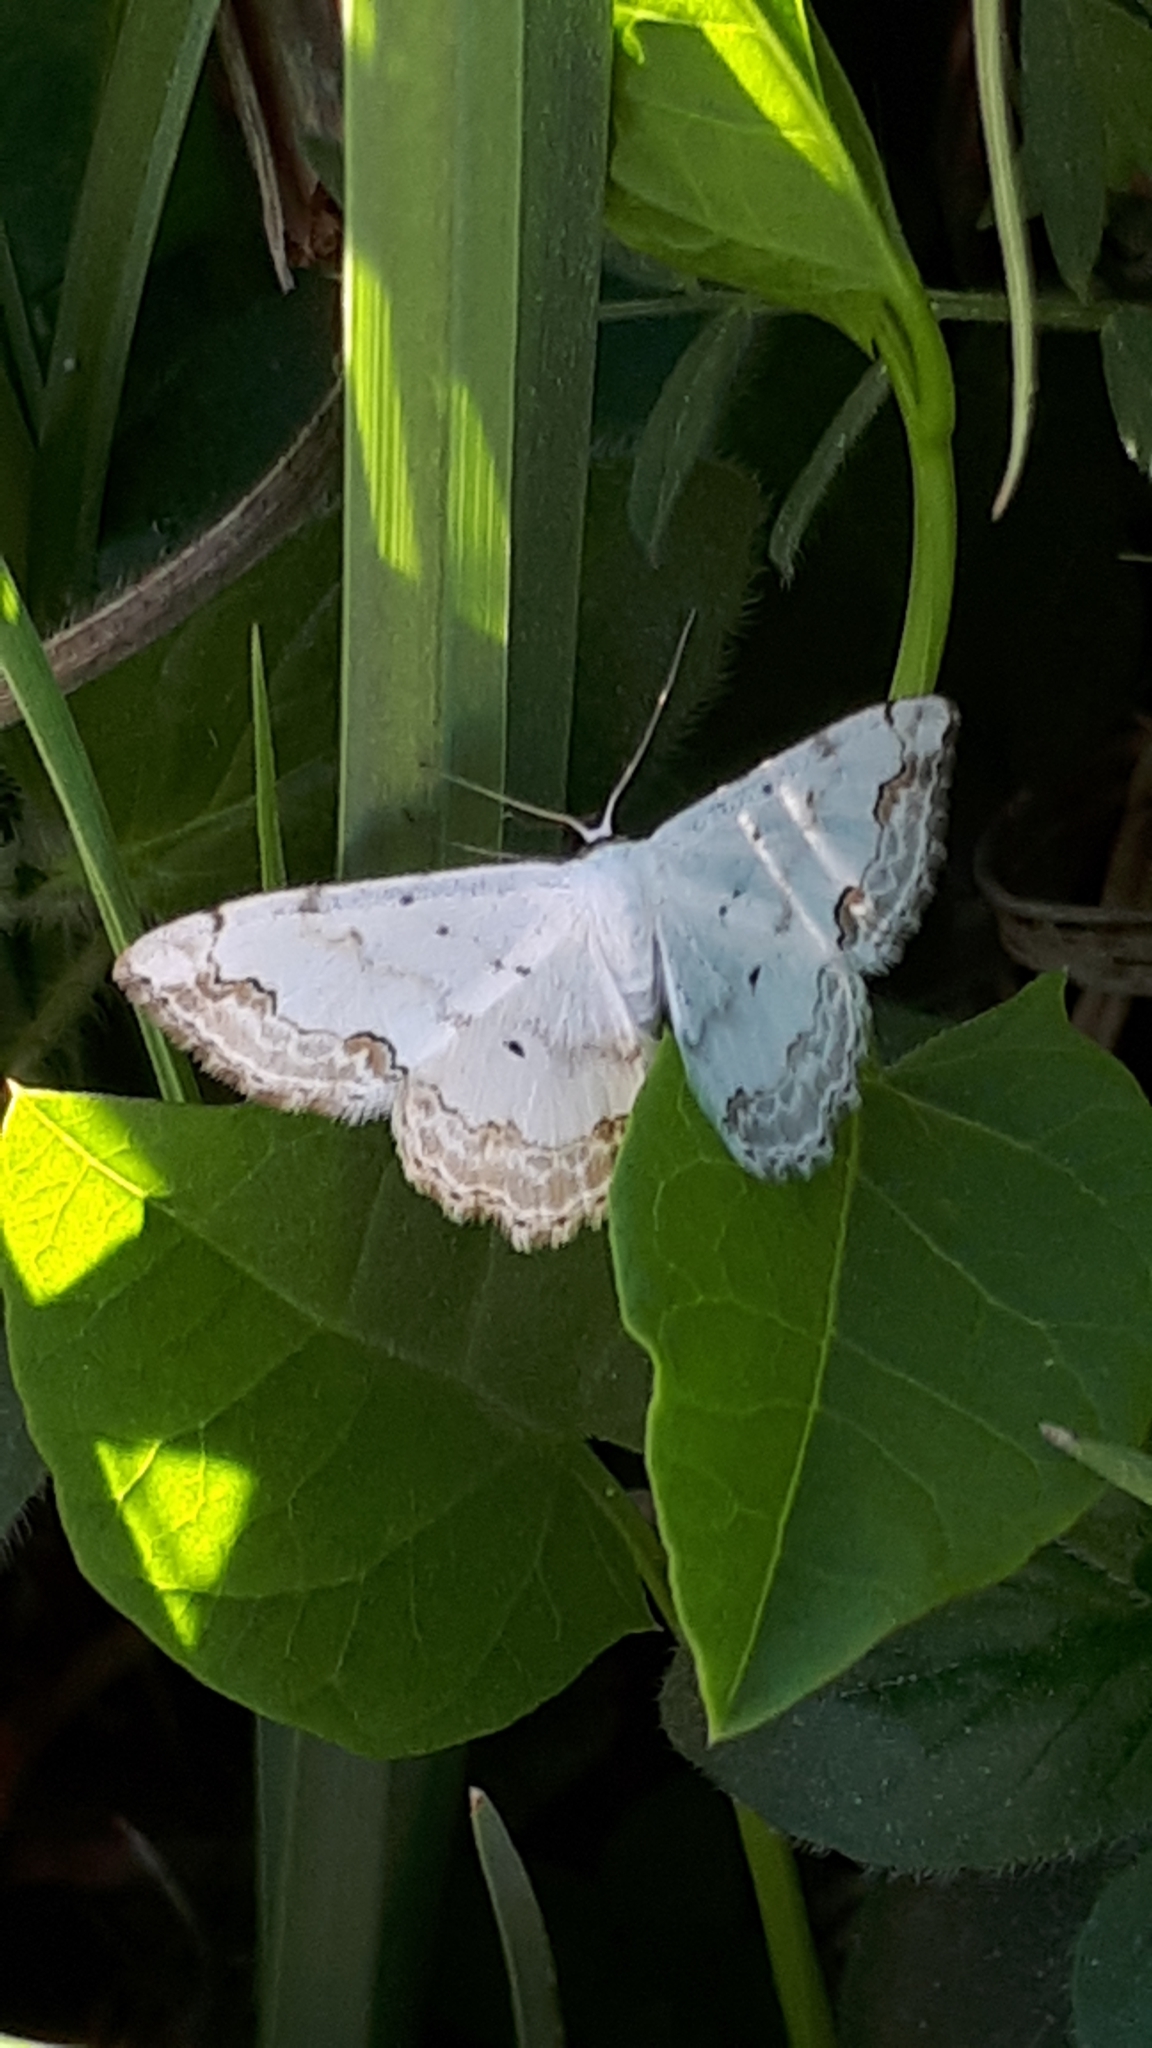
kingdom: Animalia
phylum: Arthropoda
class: Insecta
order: Lepidoptera
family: Geometridae
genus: Scopula
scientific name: Scopula ornata
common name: Lace border
